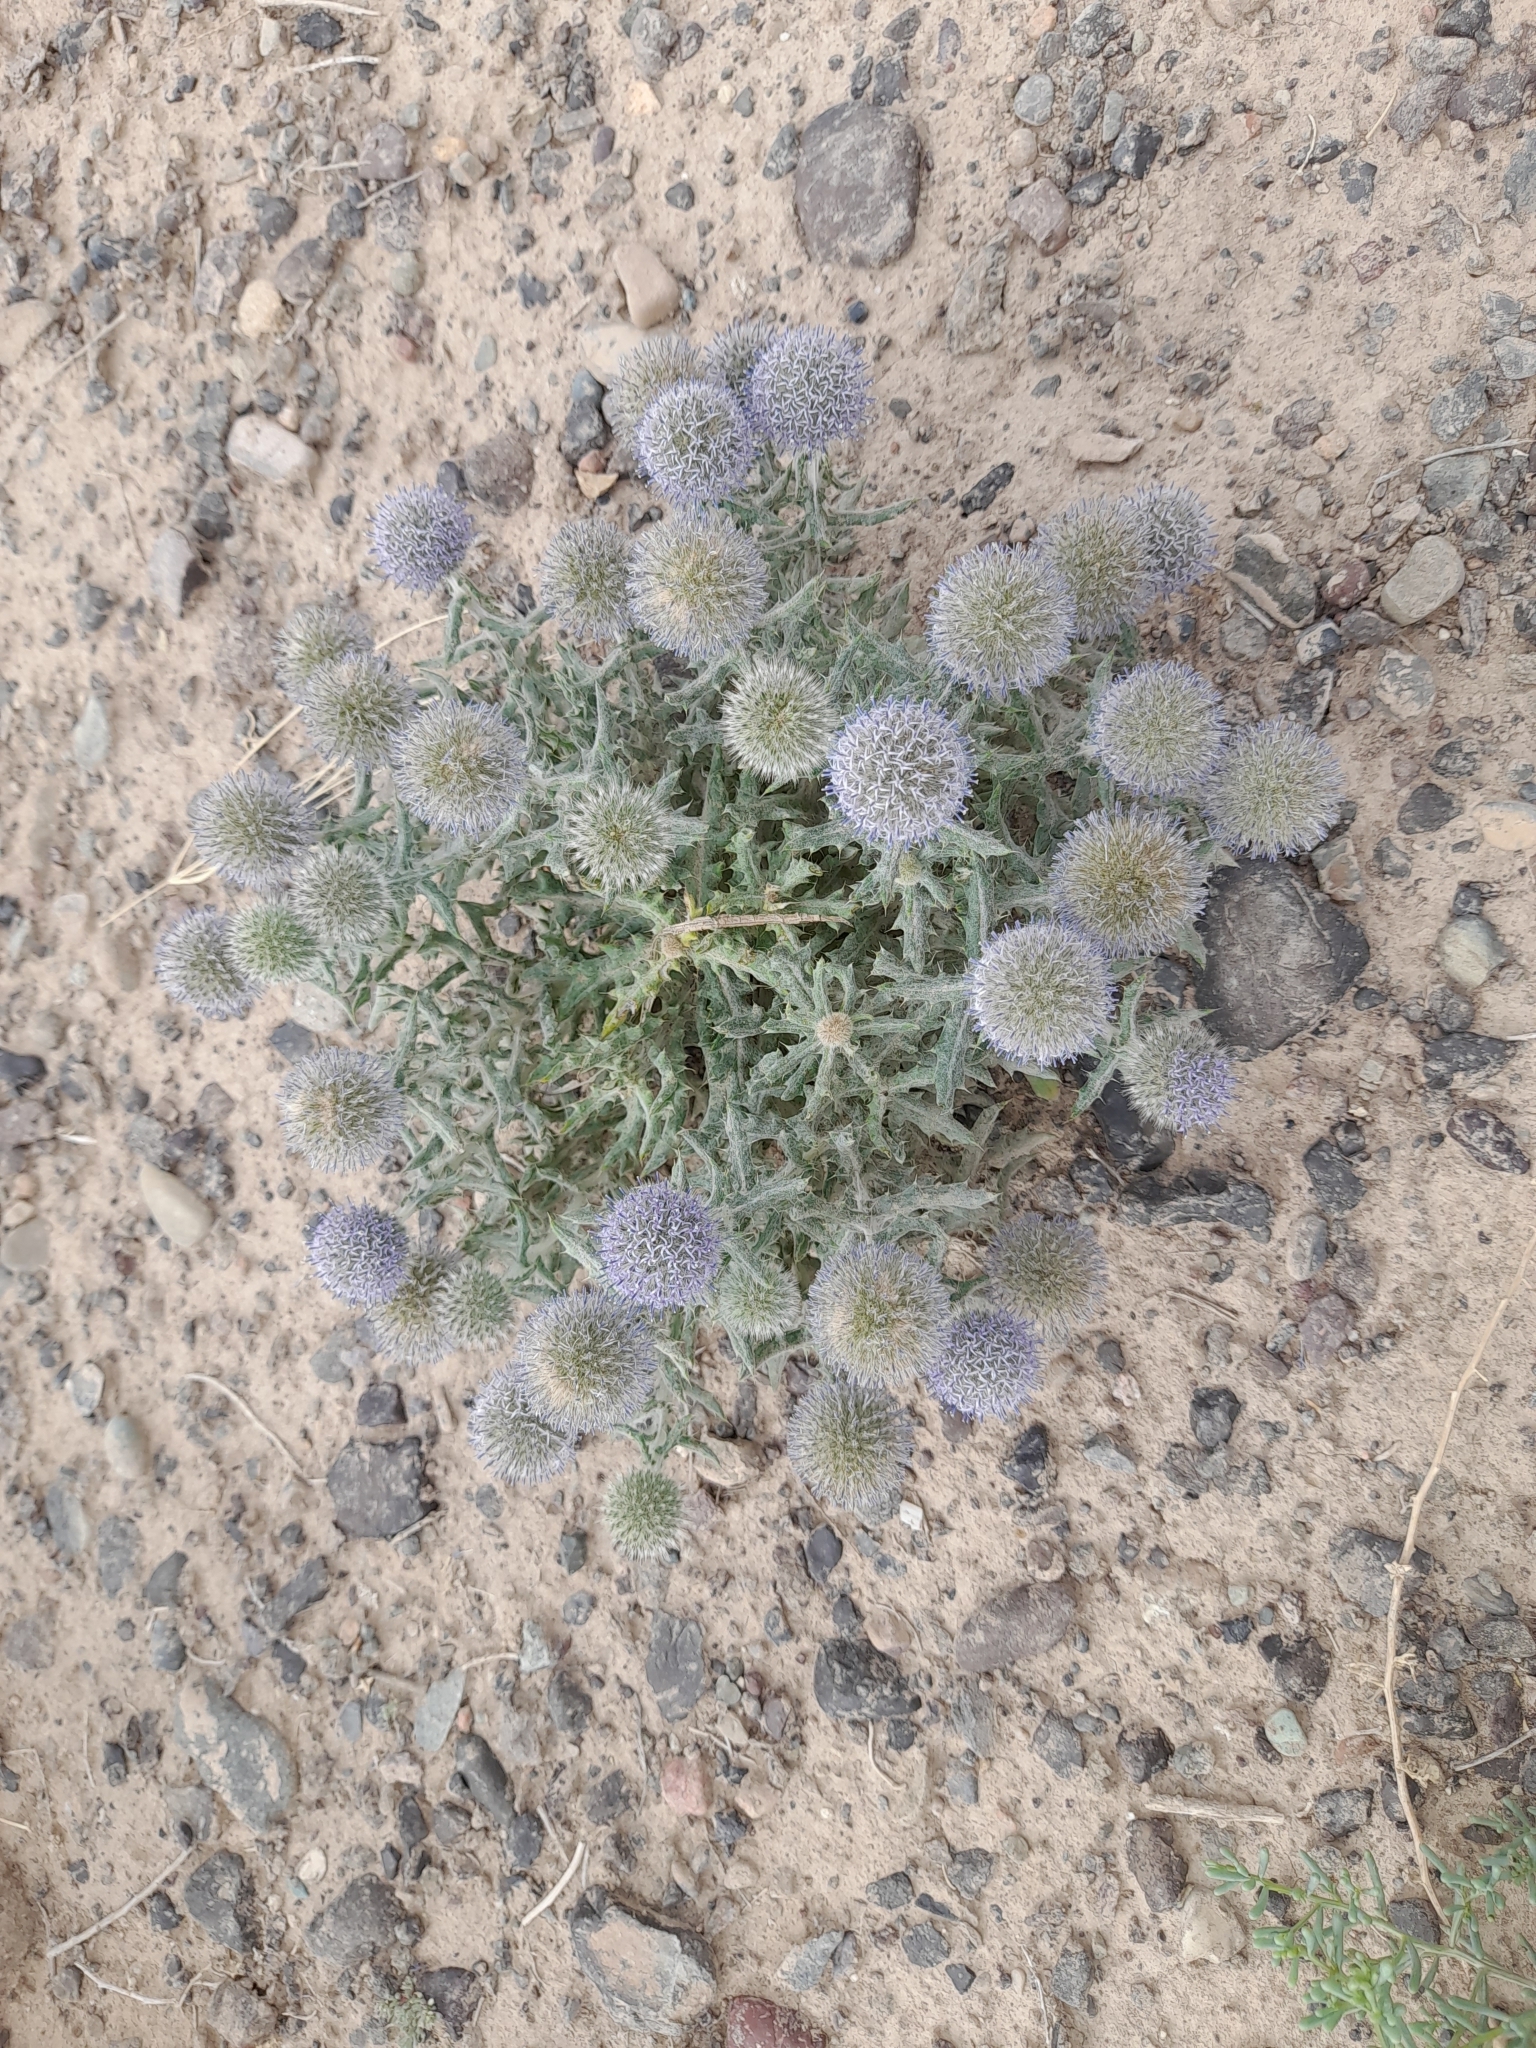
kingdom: Plantae
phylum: Tracheophyta
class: Magnoliopsida
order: Asterales
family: Asteraceae
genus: Echinops
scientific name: Echinops nanus
